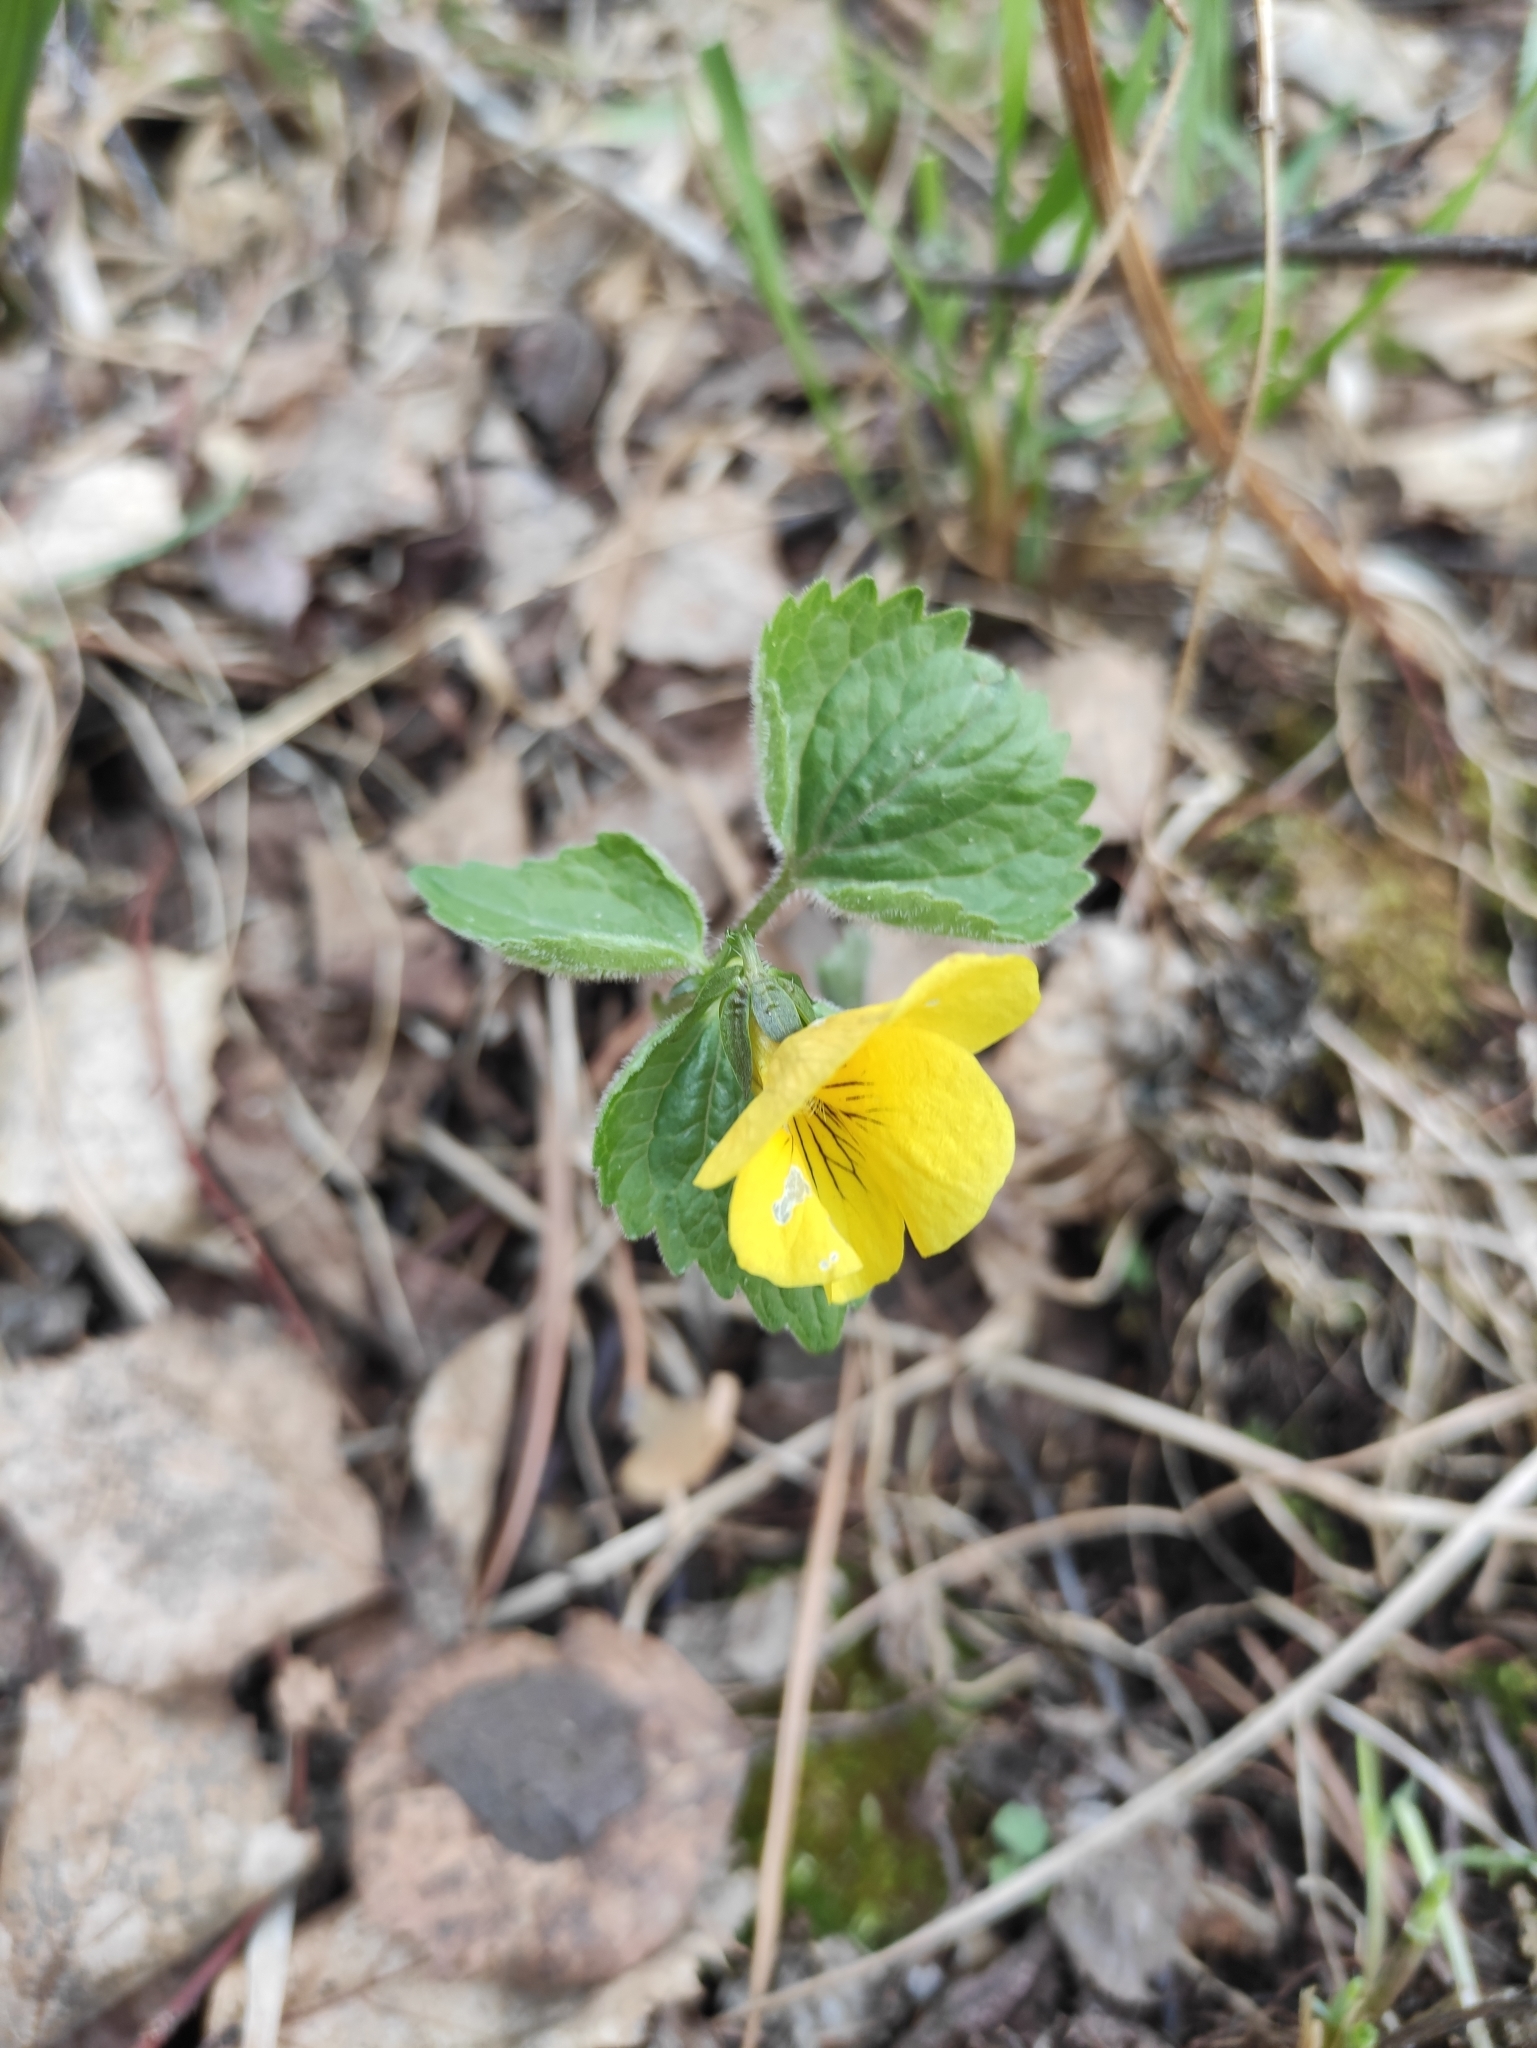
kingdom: Plantae
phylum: Tracheophyta
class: Magnoliopsida
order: Malpighiales
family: Violaceae
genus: Viola
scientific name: Viola uniflora
